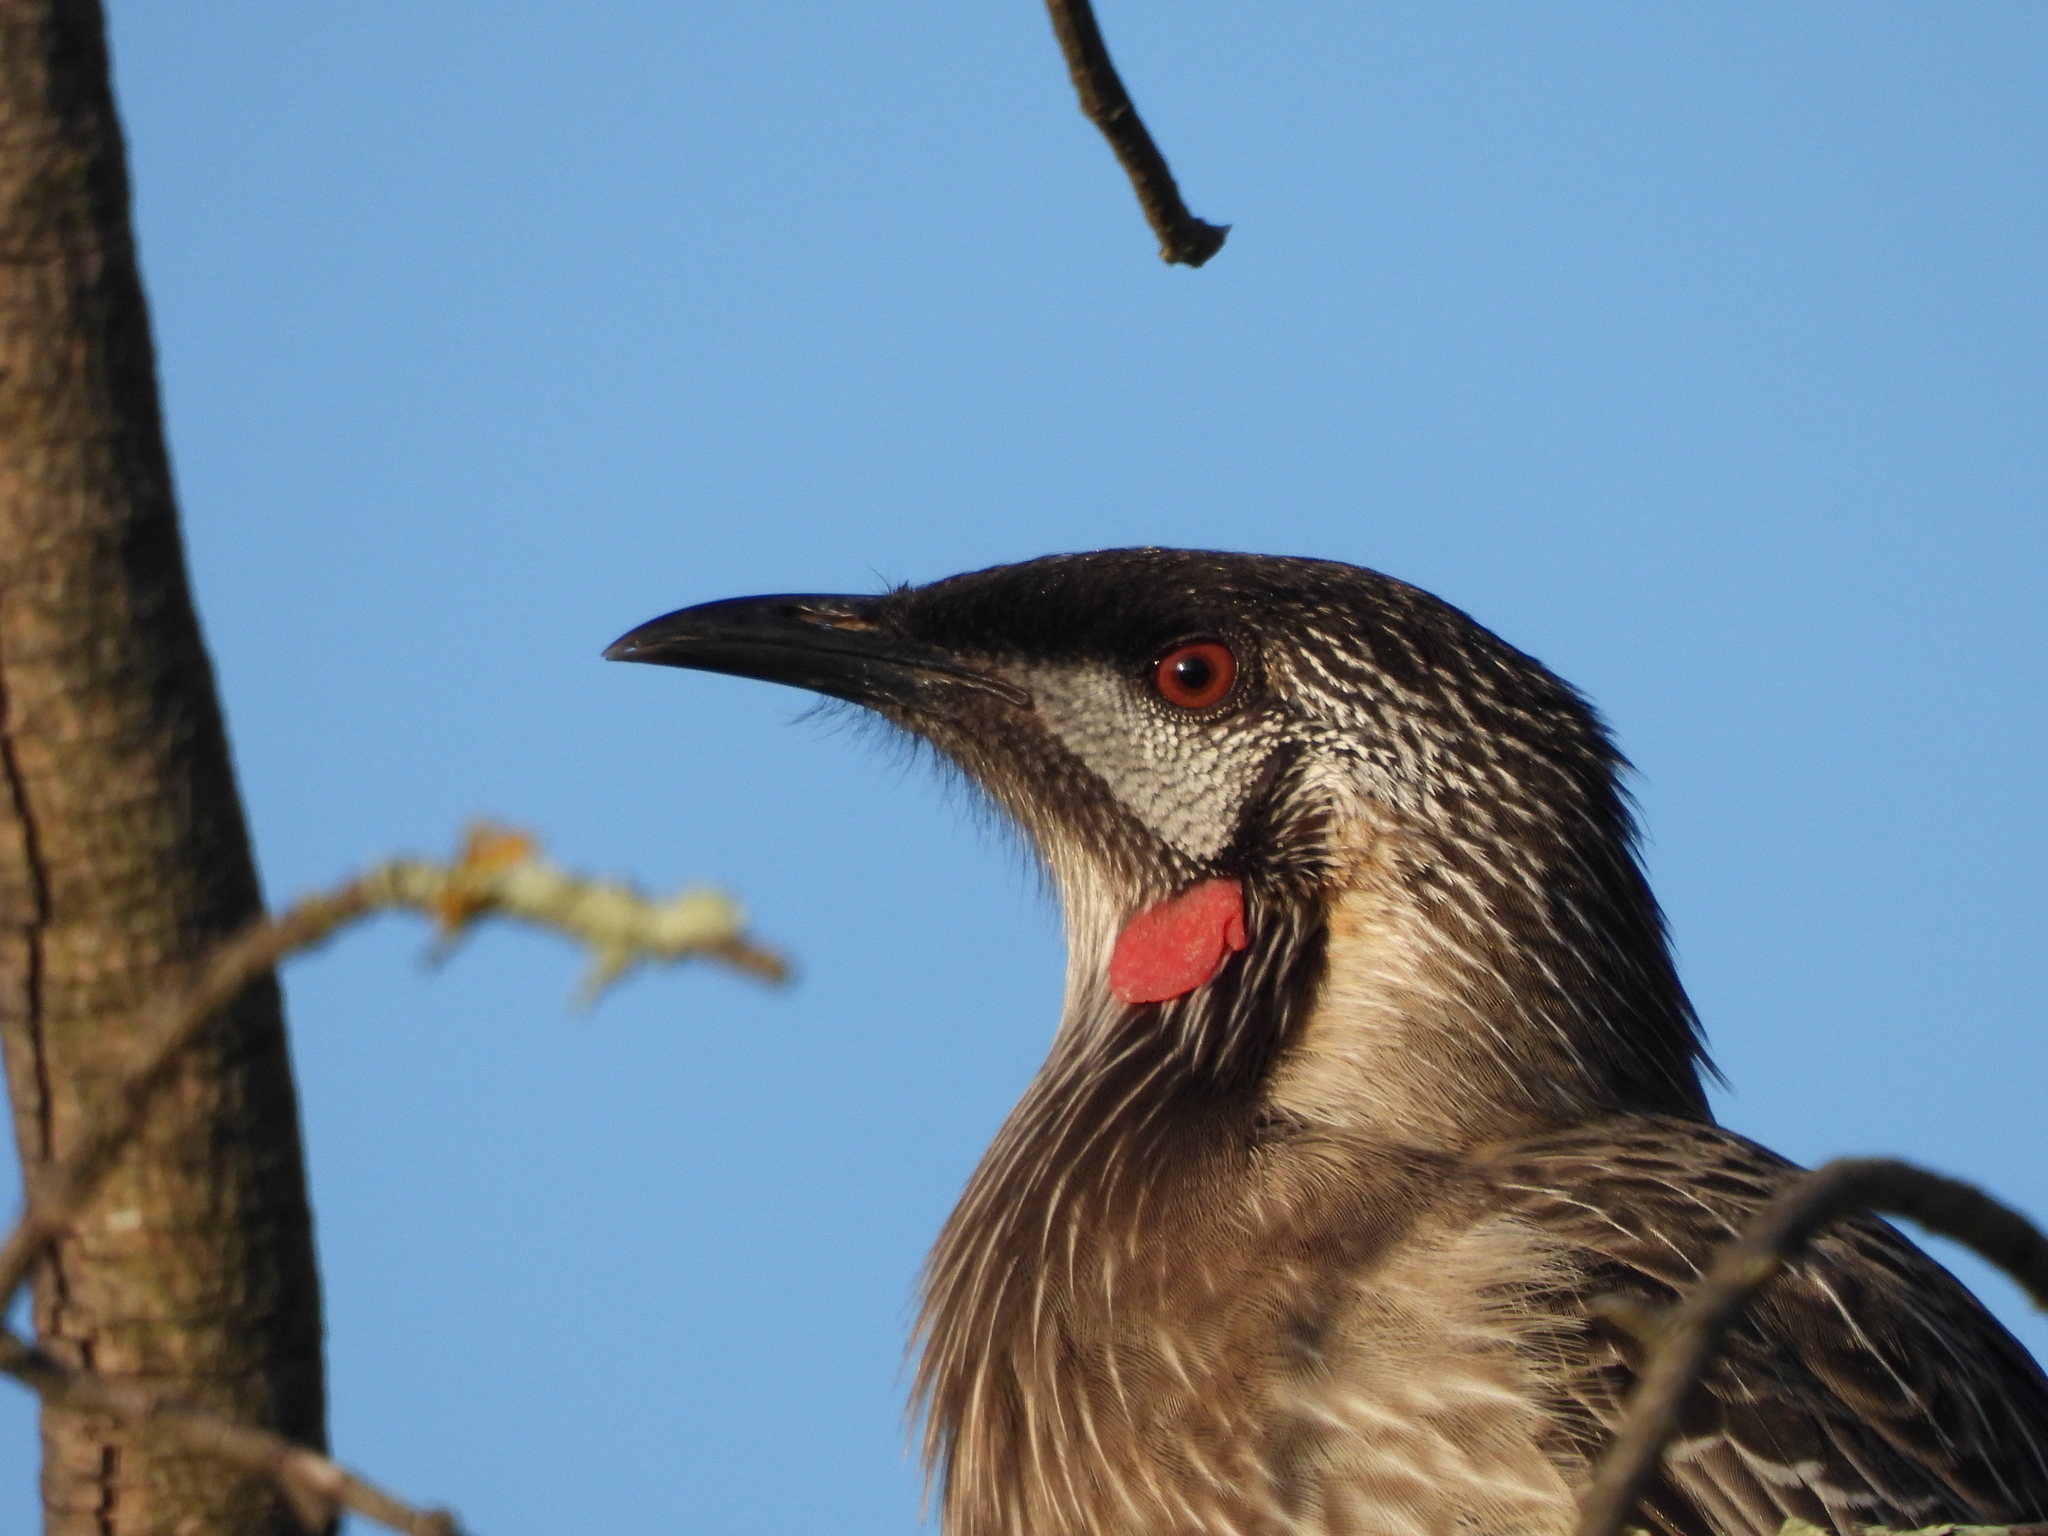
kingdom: Animalia
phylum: Chordata
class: Aves
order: Passeriformes
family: Meliphagidae
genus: Anthochaera
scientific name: Anthochaera carunculata
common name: Red wattlebird
